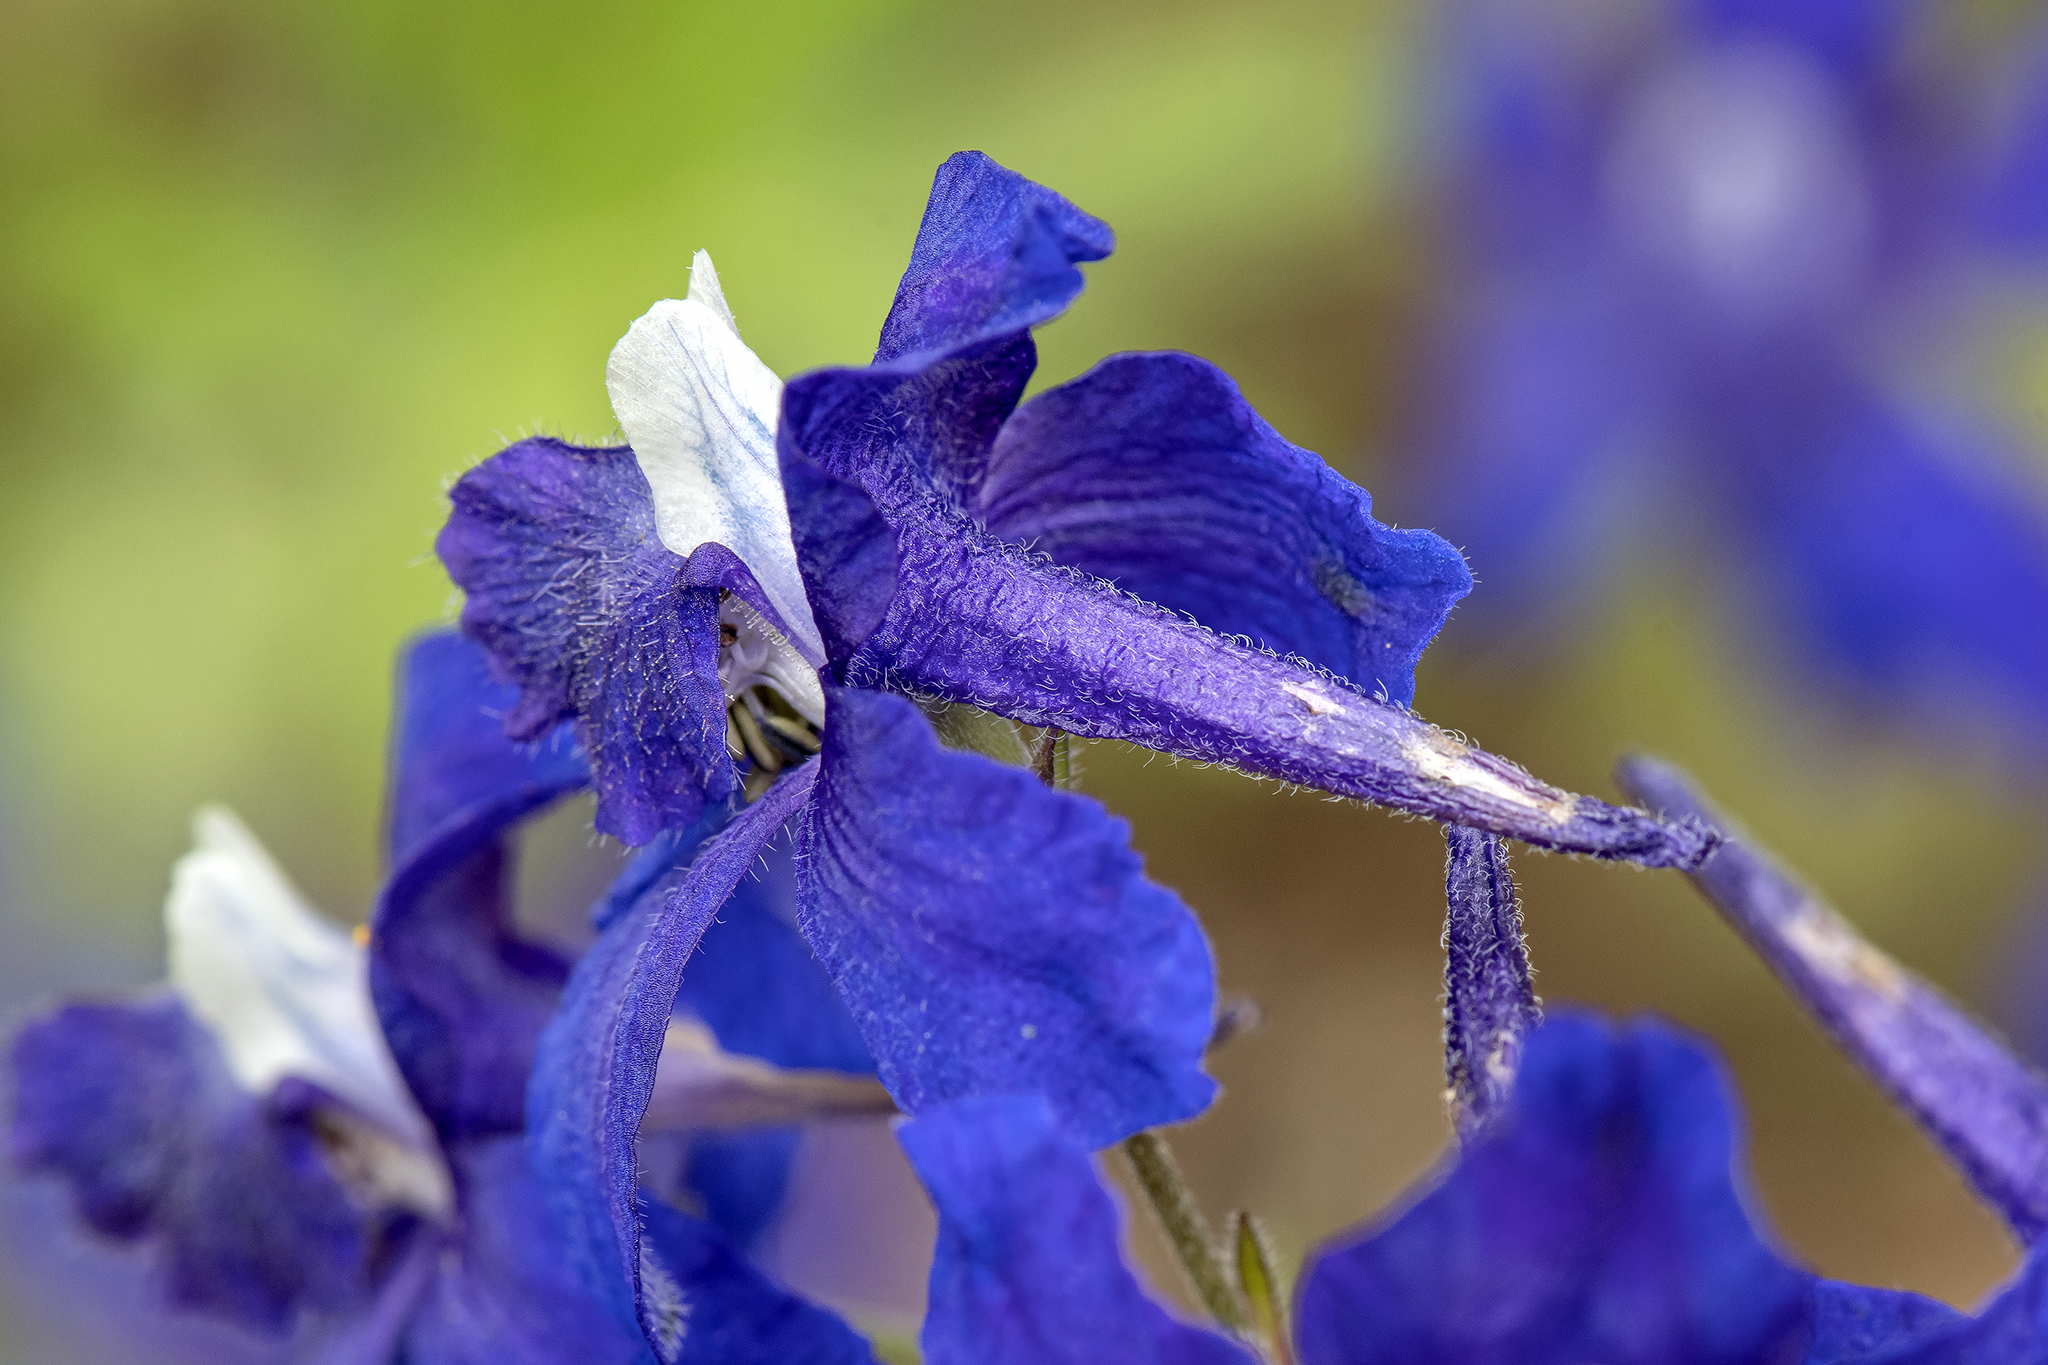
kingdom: Plantae
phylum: Tracheophyta
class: Magnoliopsida
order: Ranunculales
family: Ranunculaceae
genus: Delphinium
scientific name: Delphinium menziesii
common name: Menzies's larkspur
